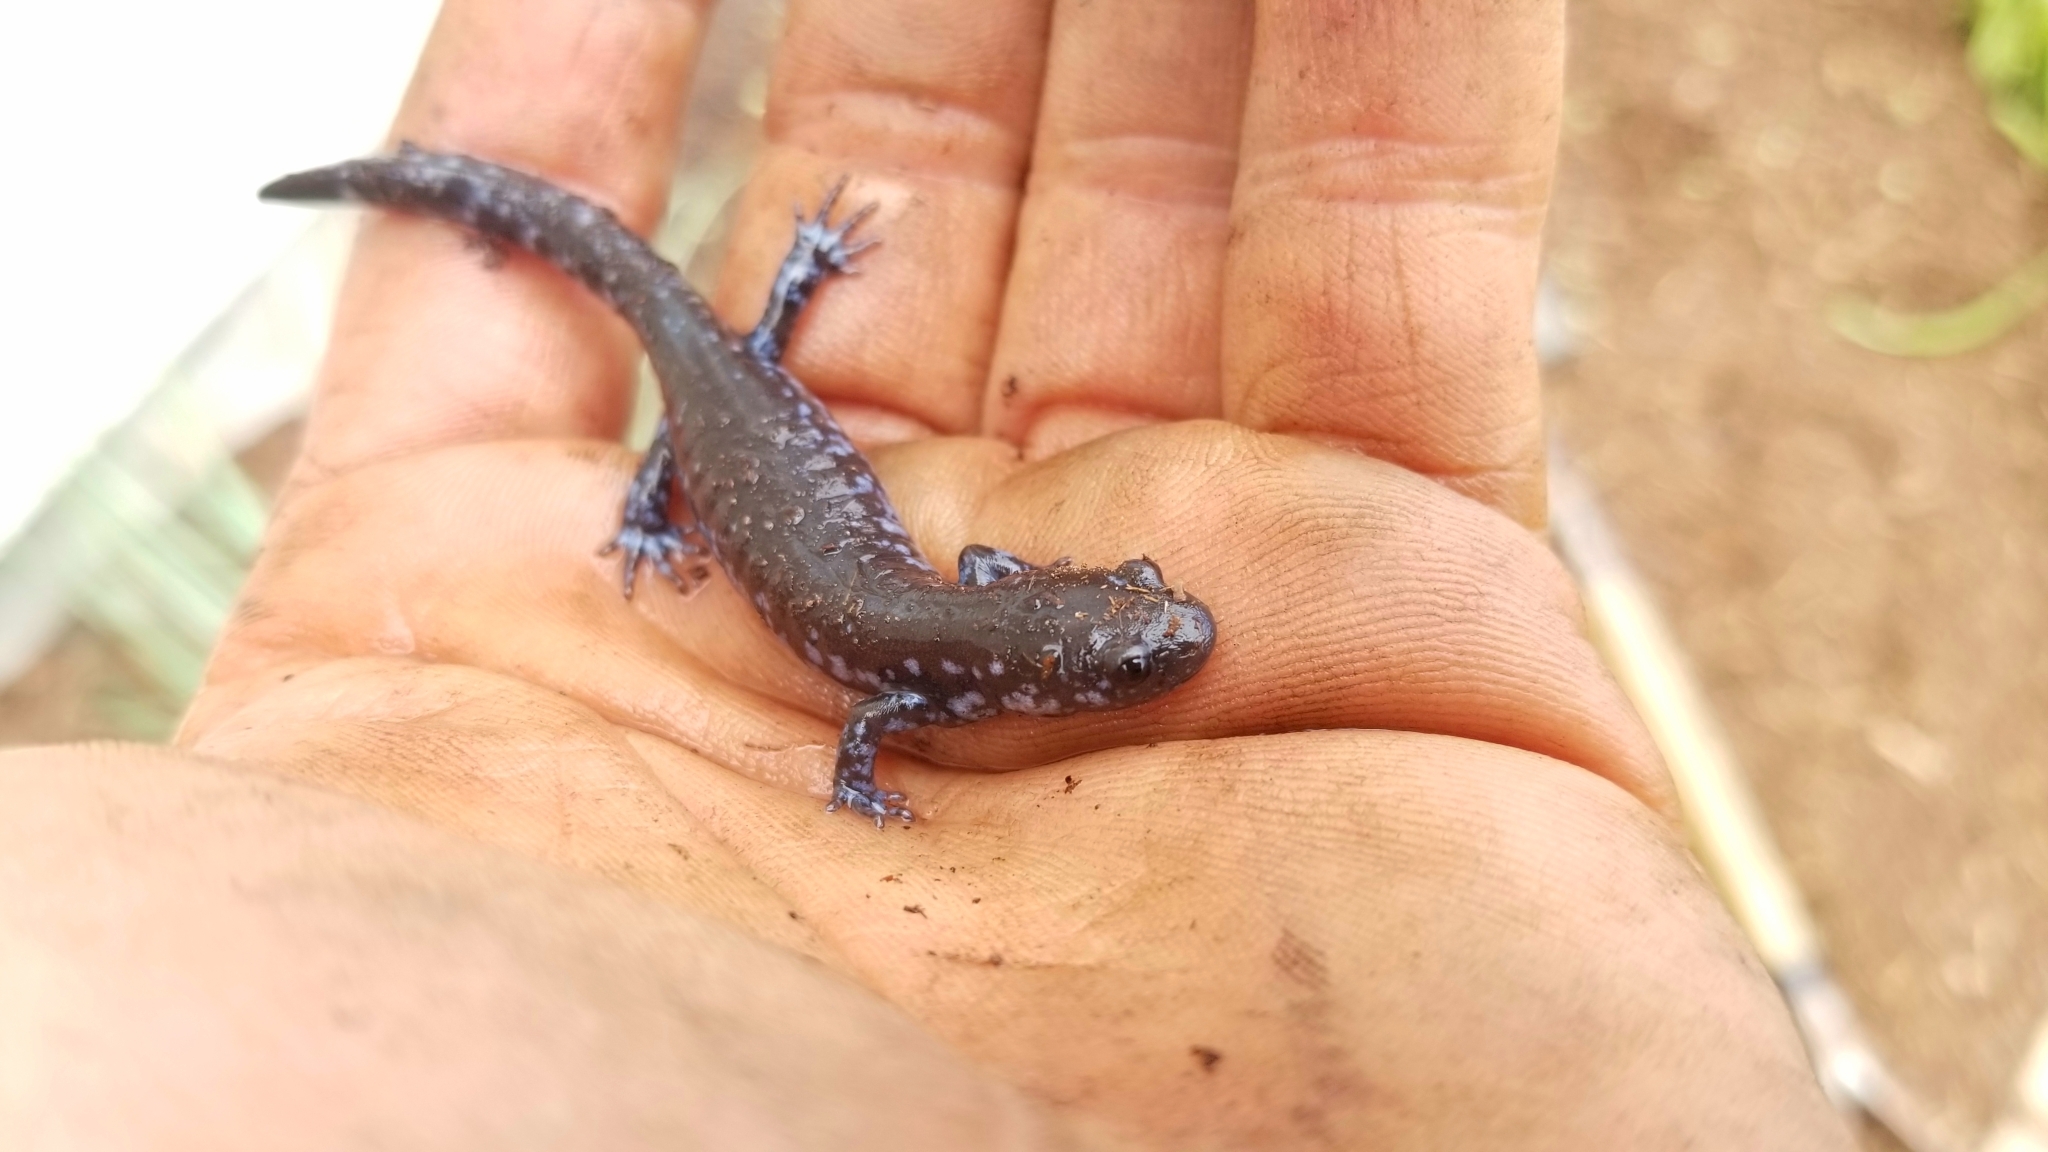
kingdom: Animalia
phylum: Chordata
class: Amphibia
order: Caudata
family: Ambystomatidae
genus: Ambystoma
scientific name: Ambystoma laterale
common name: Blue-spotted salamander
